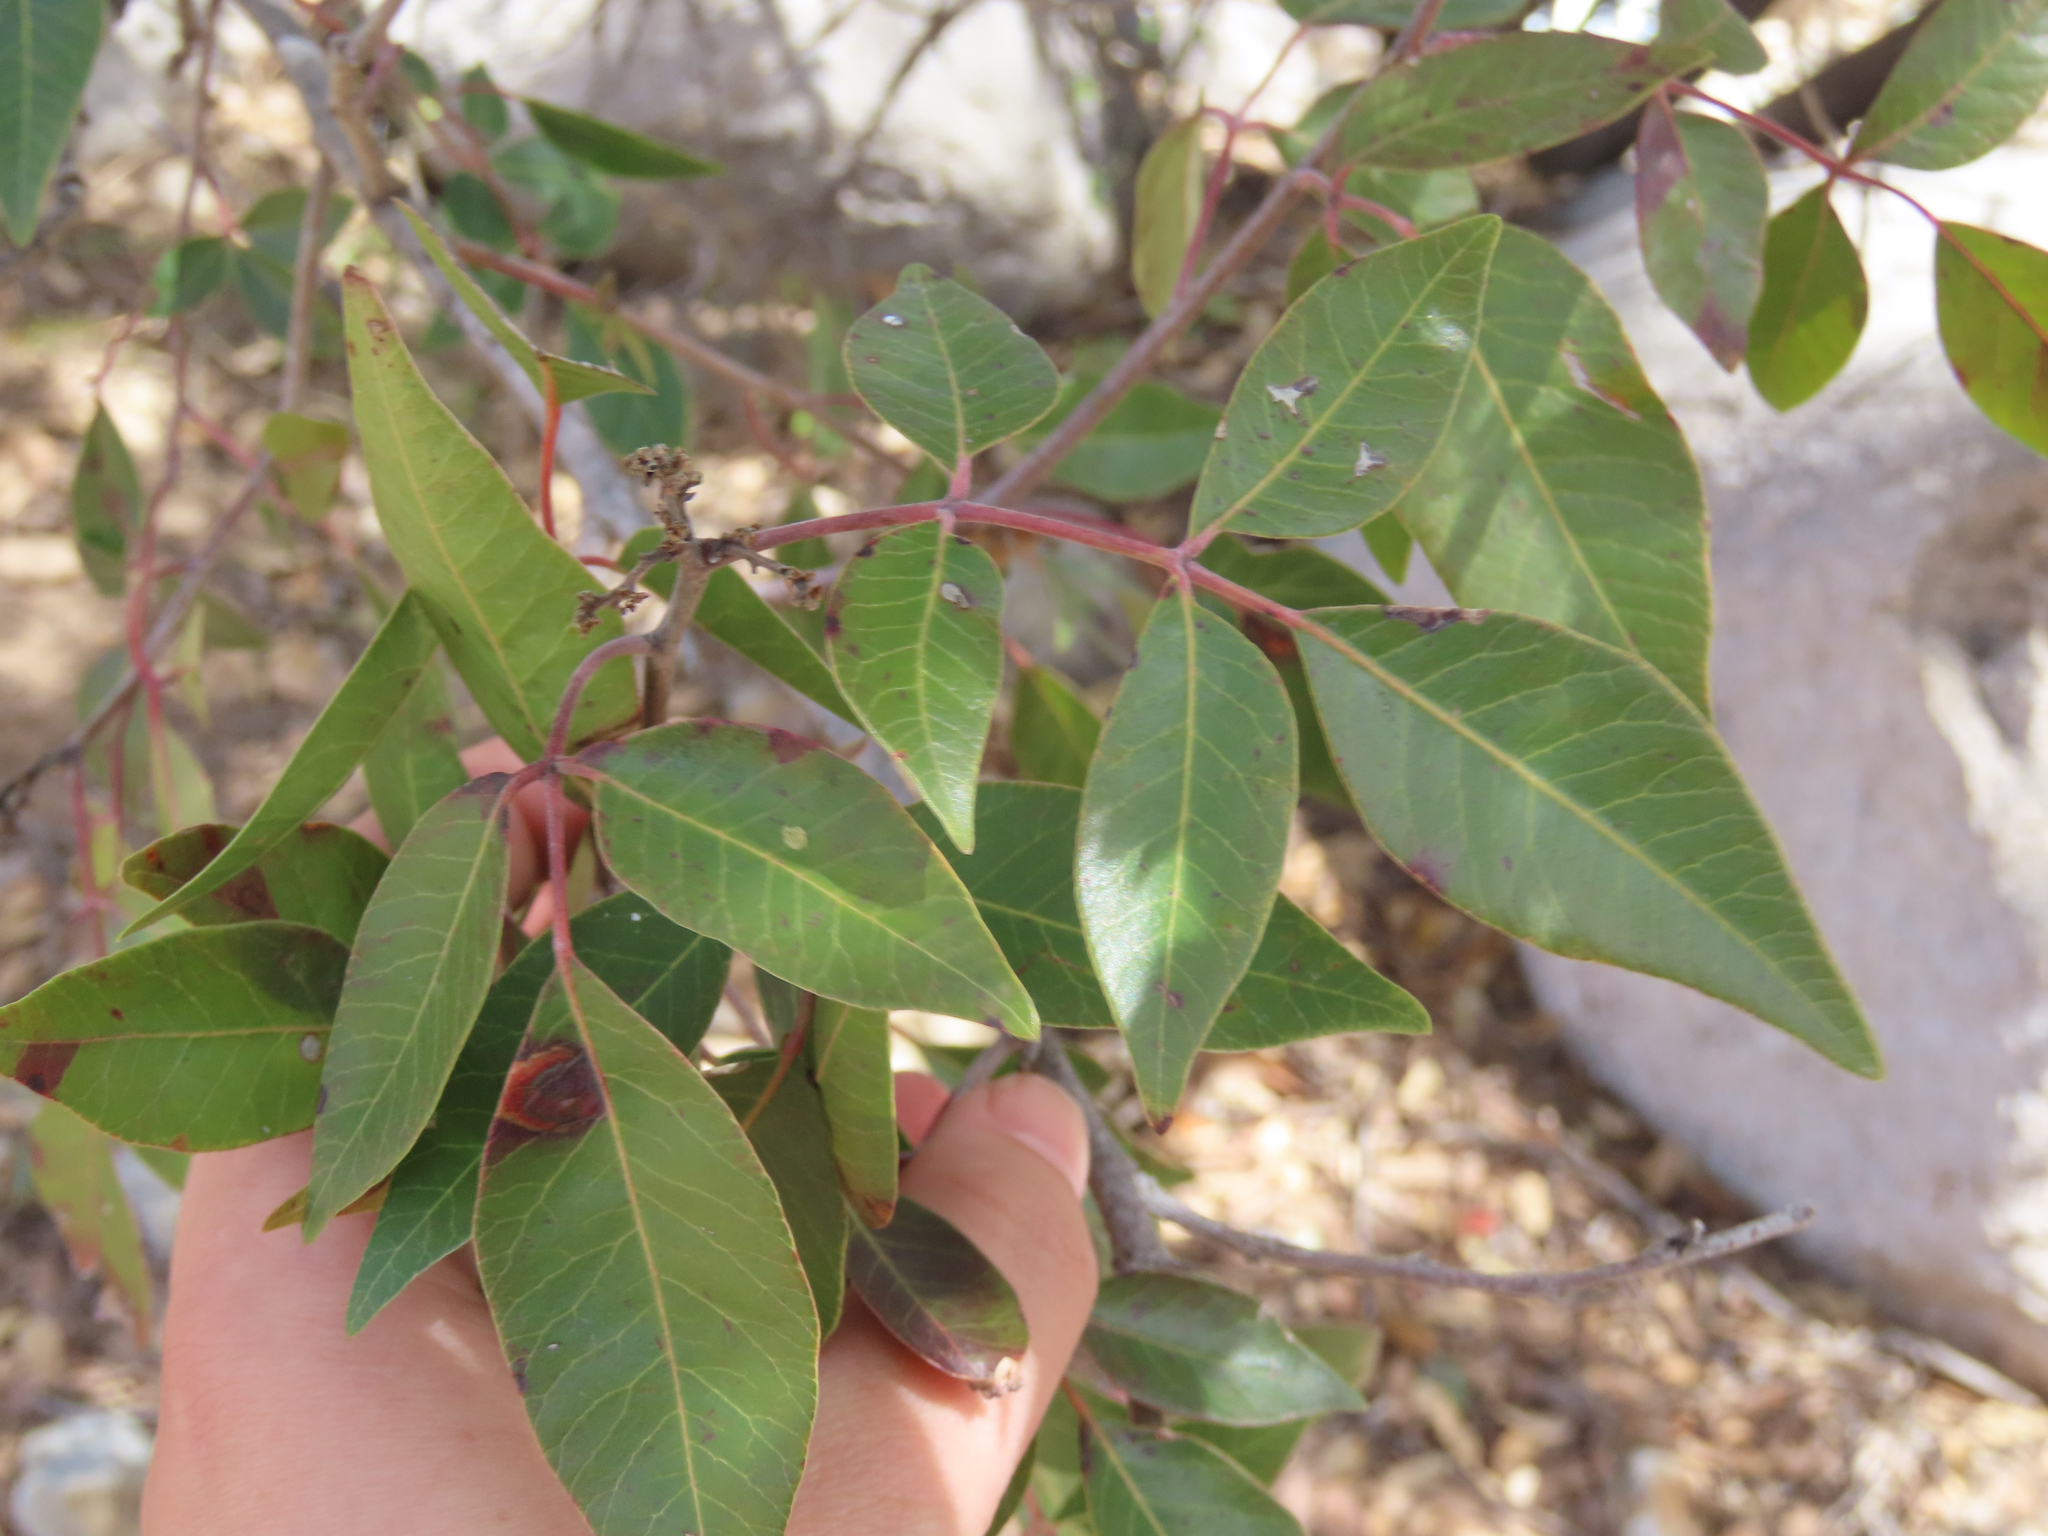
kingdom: Plantae
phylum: Tracheophyta
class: Magnoliopsida
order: Sapindales
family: Anacardiaceae
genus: Rhus
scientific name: Rhus virens
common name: Evergreen sumac
